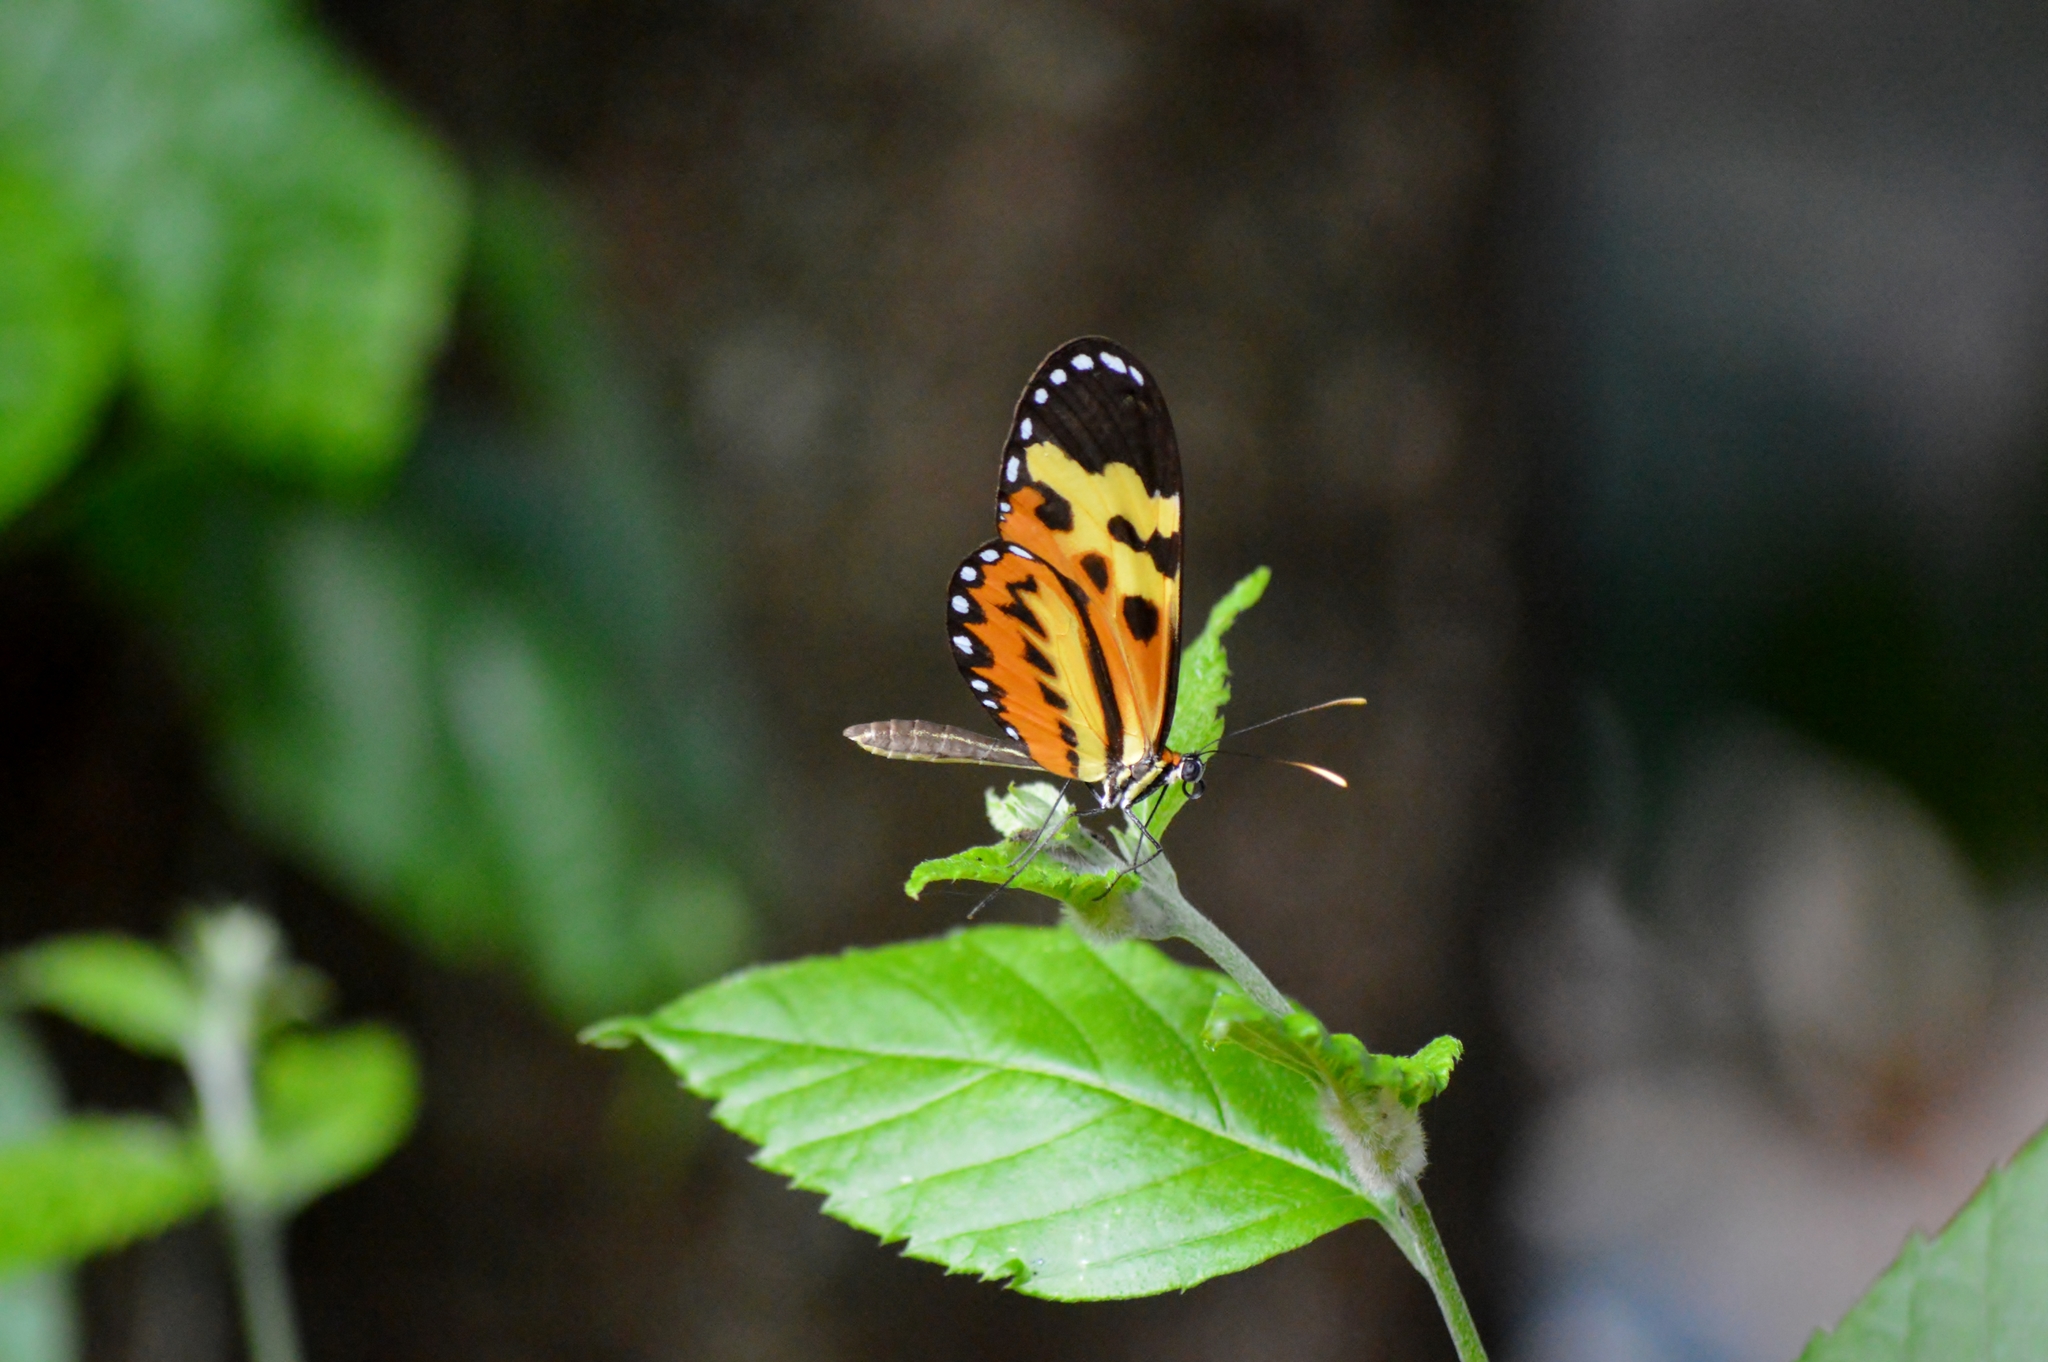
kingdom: Animalia
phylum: Arthropoda
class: Insecta
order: Lepidoptera
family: Nymphalidae
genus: Mechanitis
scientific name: Mechanitis polymnia
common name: Disturbed tigerwing
